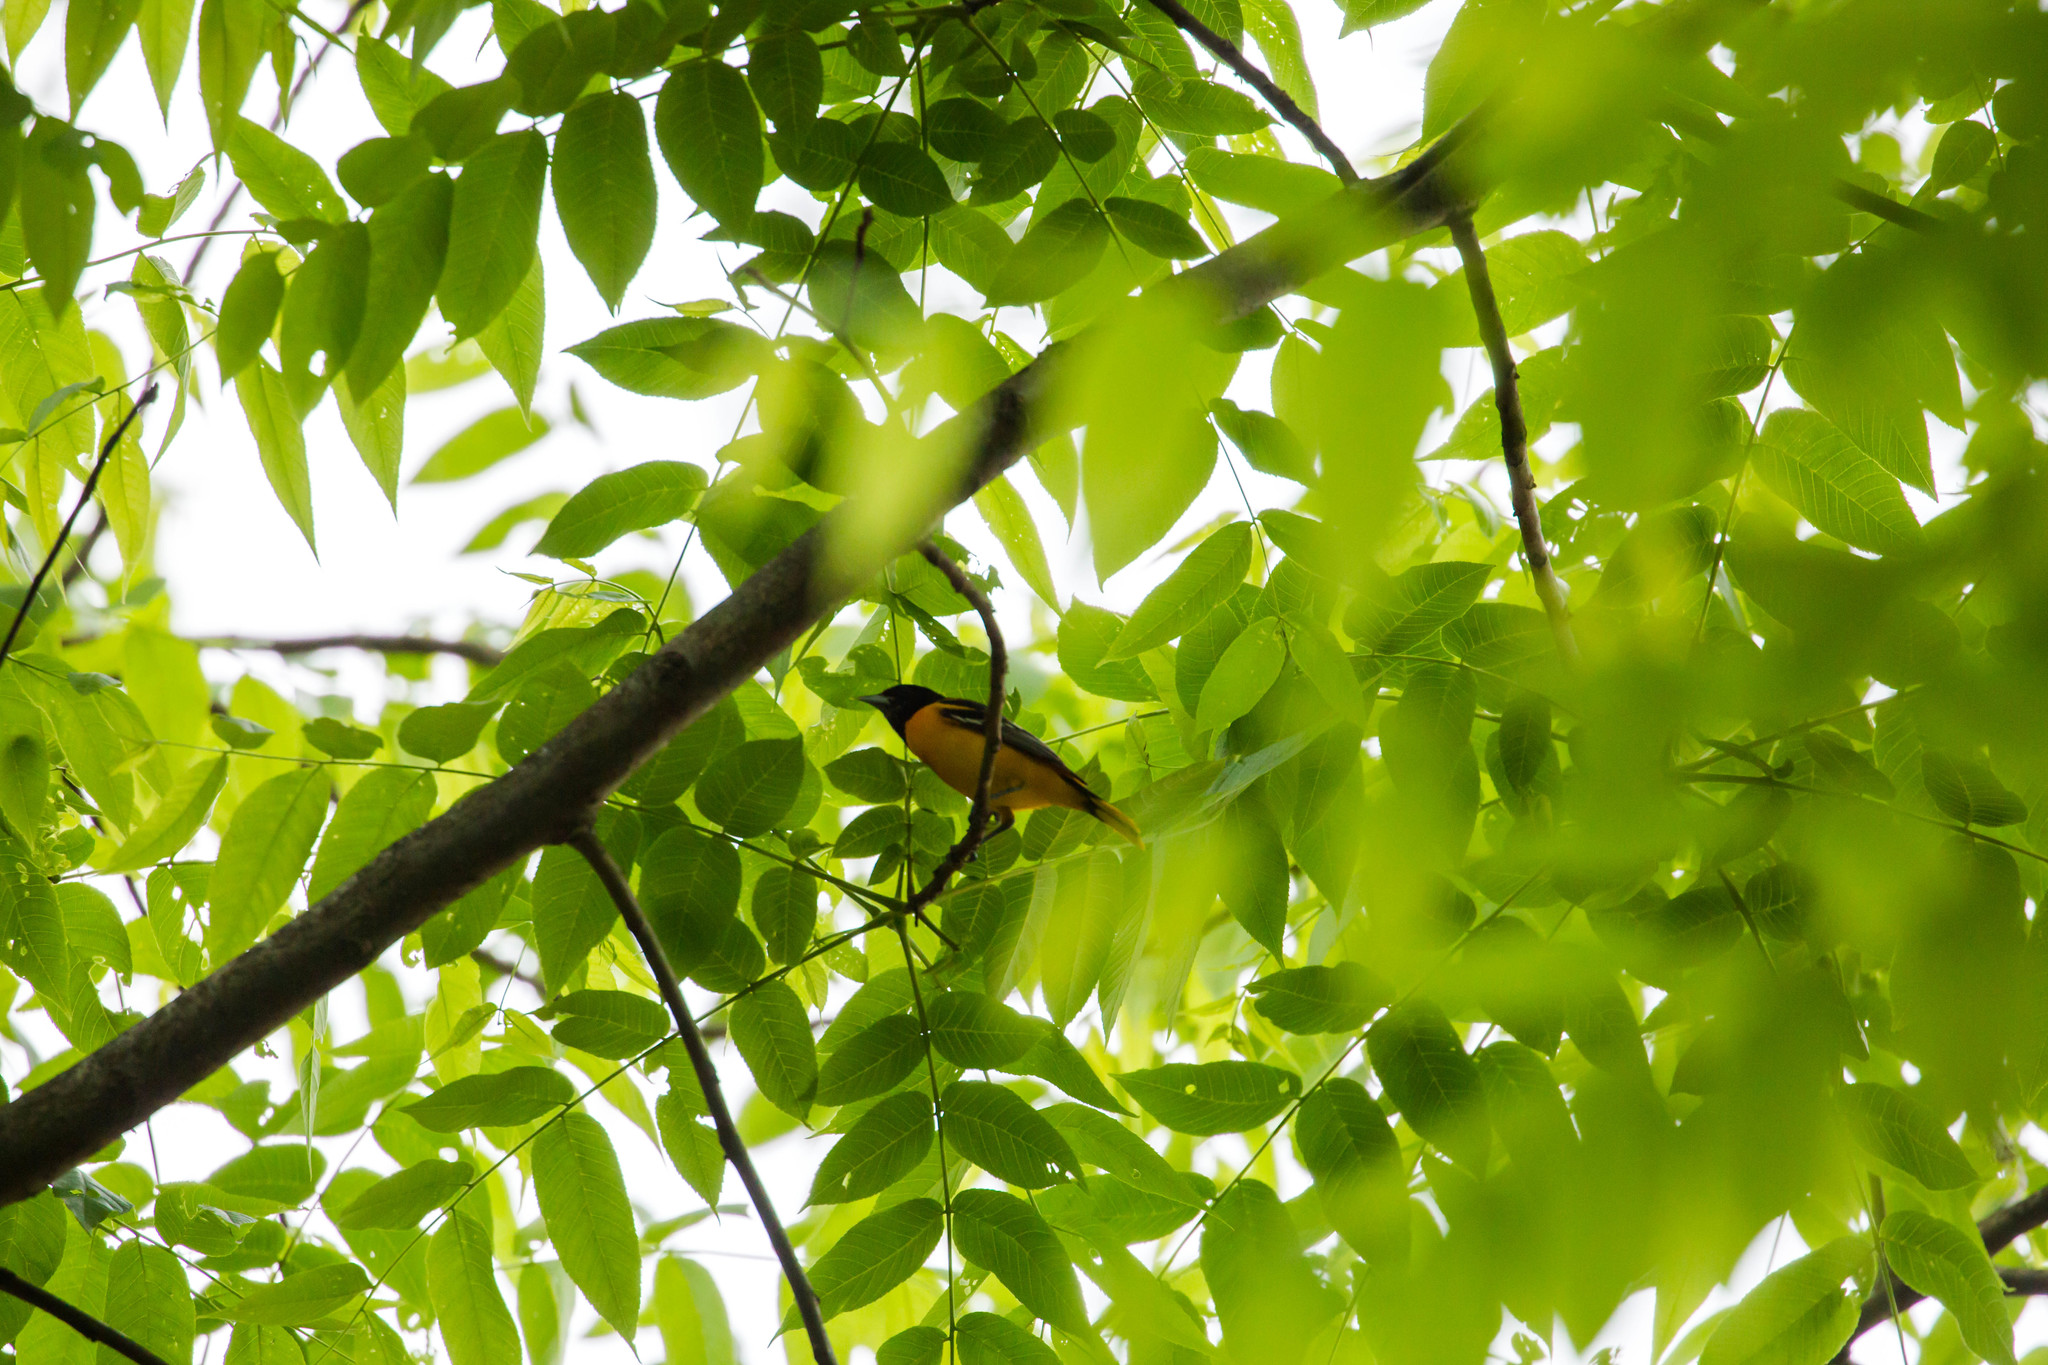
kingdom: Animalia
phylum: Chordata
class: Aves
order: Passeriformes
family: Icteridae
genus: Icterus
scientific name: Icterus galbula
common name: Baltimore oriole
